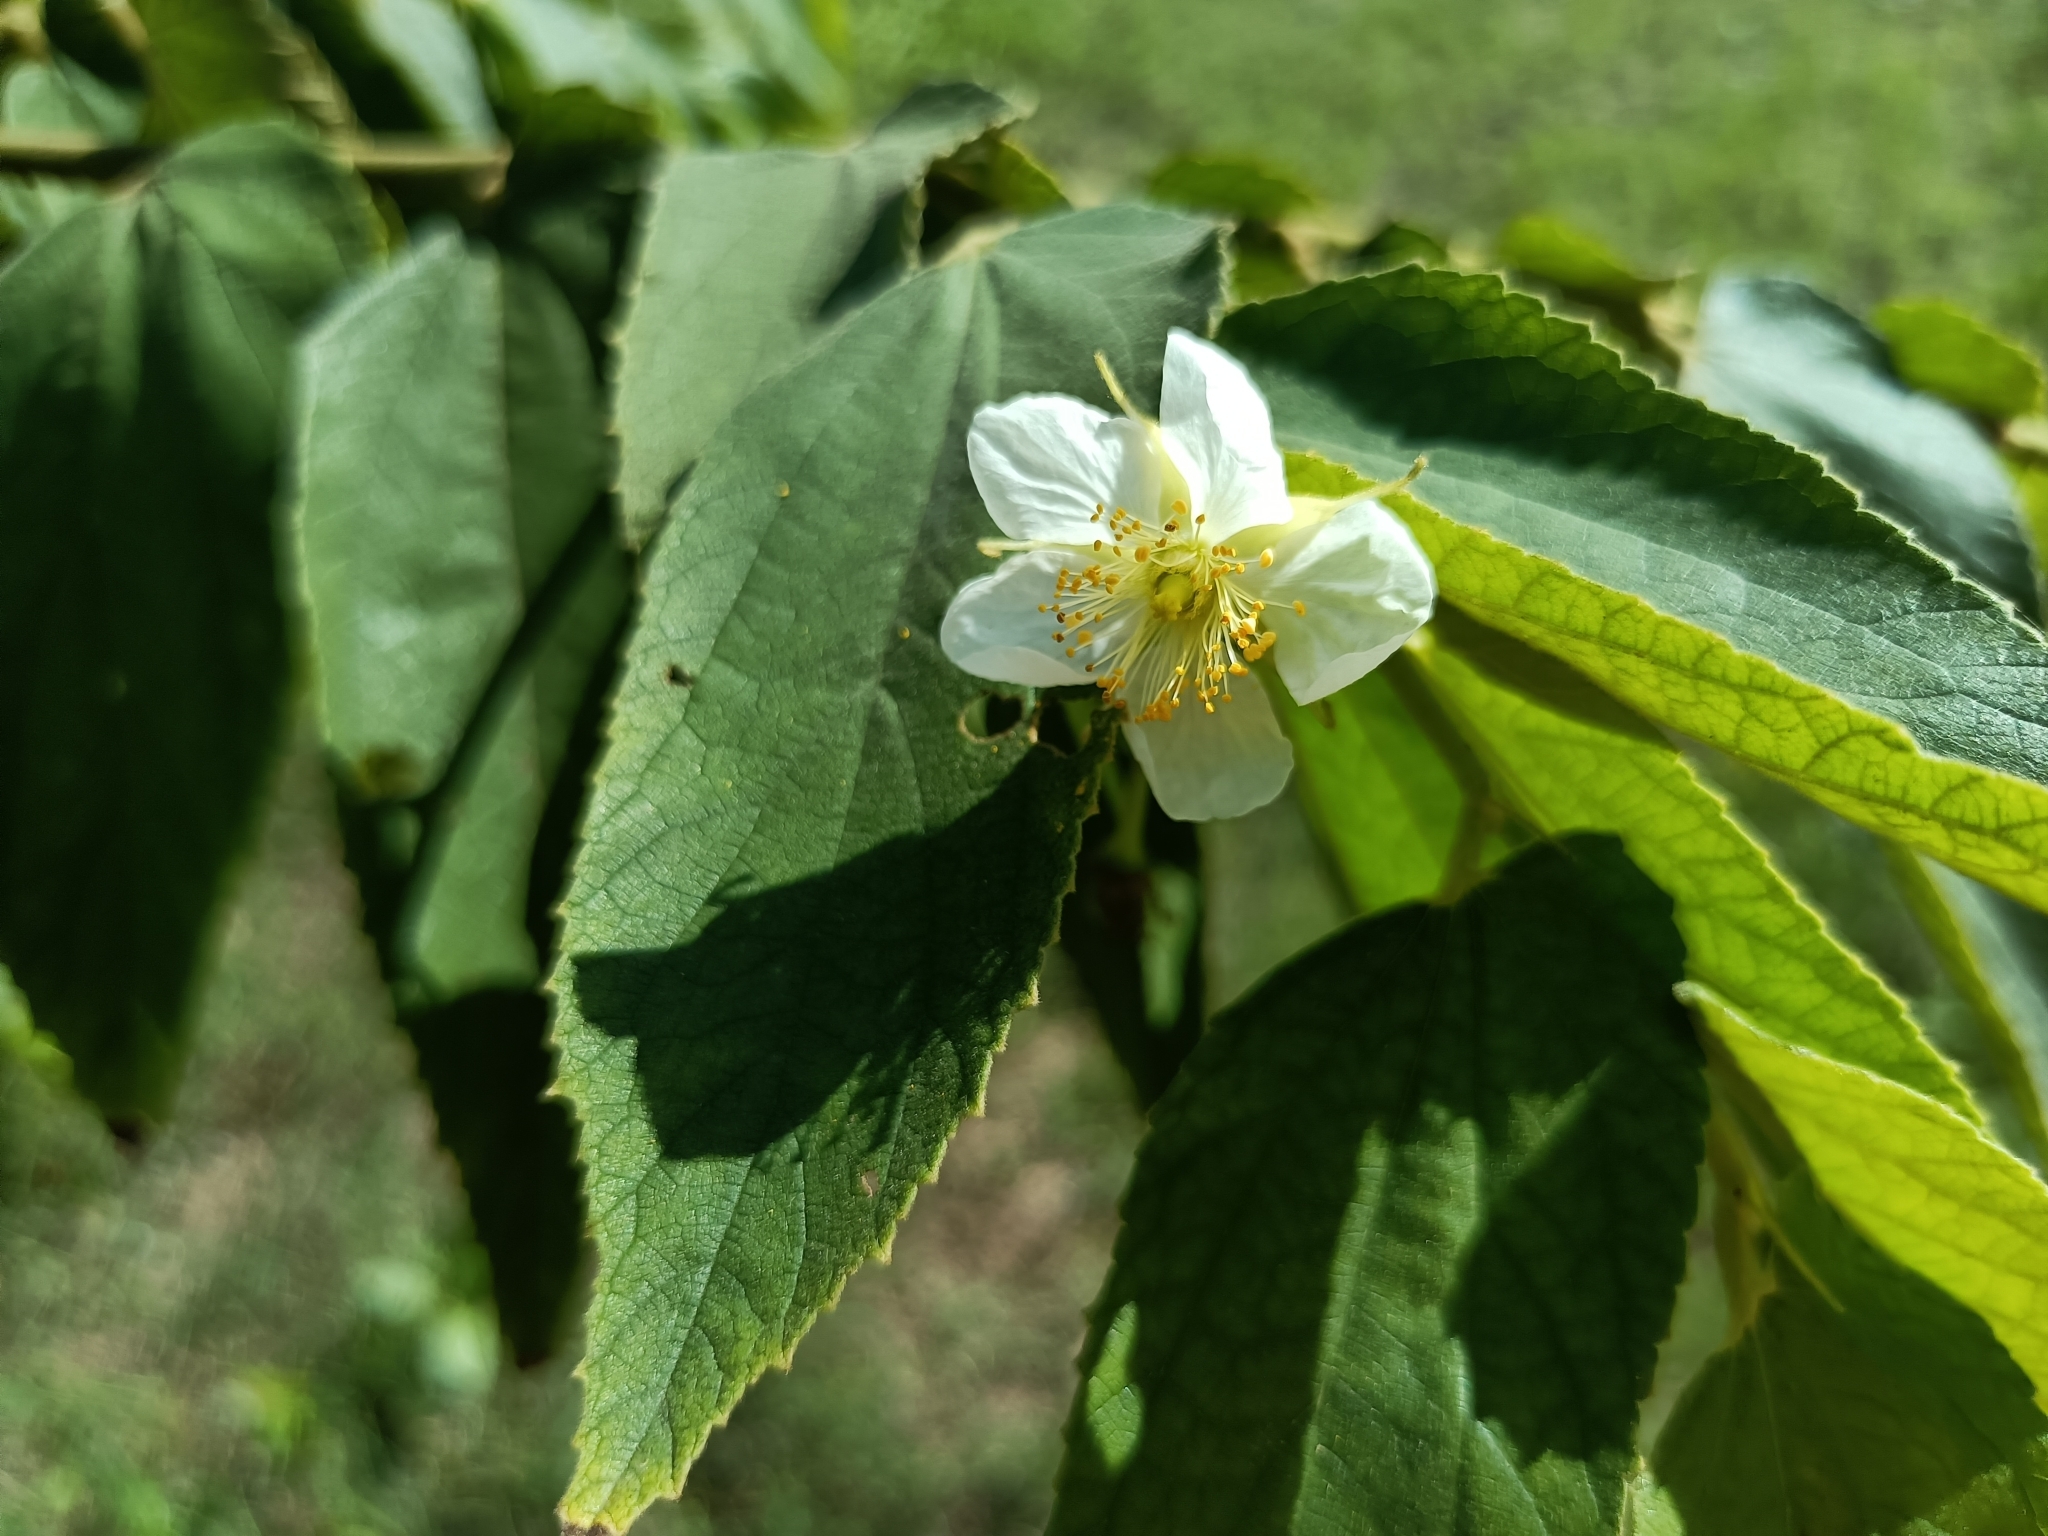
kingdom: Plantae
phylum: Tracheophyta
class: Magnoliopsida
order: Malvales
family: Muntingiaceae
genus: Muntingia
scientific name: Muntingia calabura
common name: Strawberrytree
